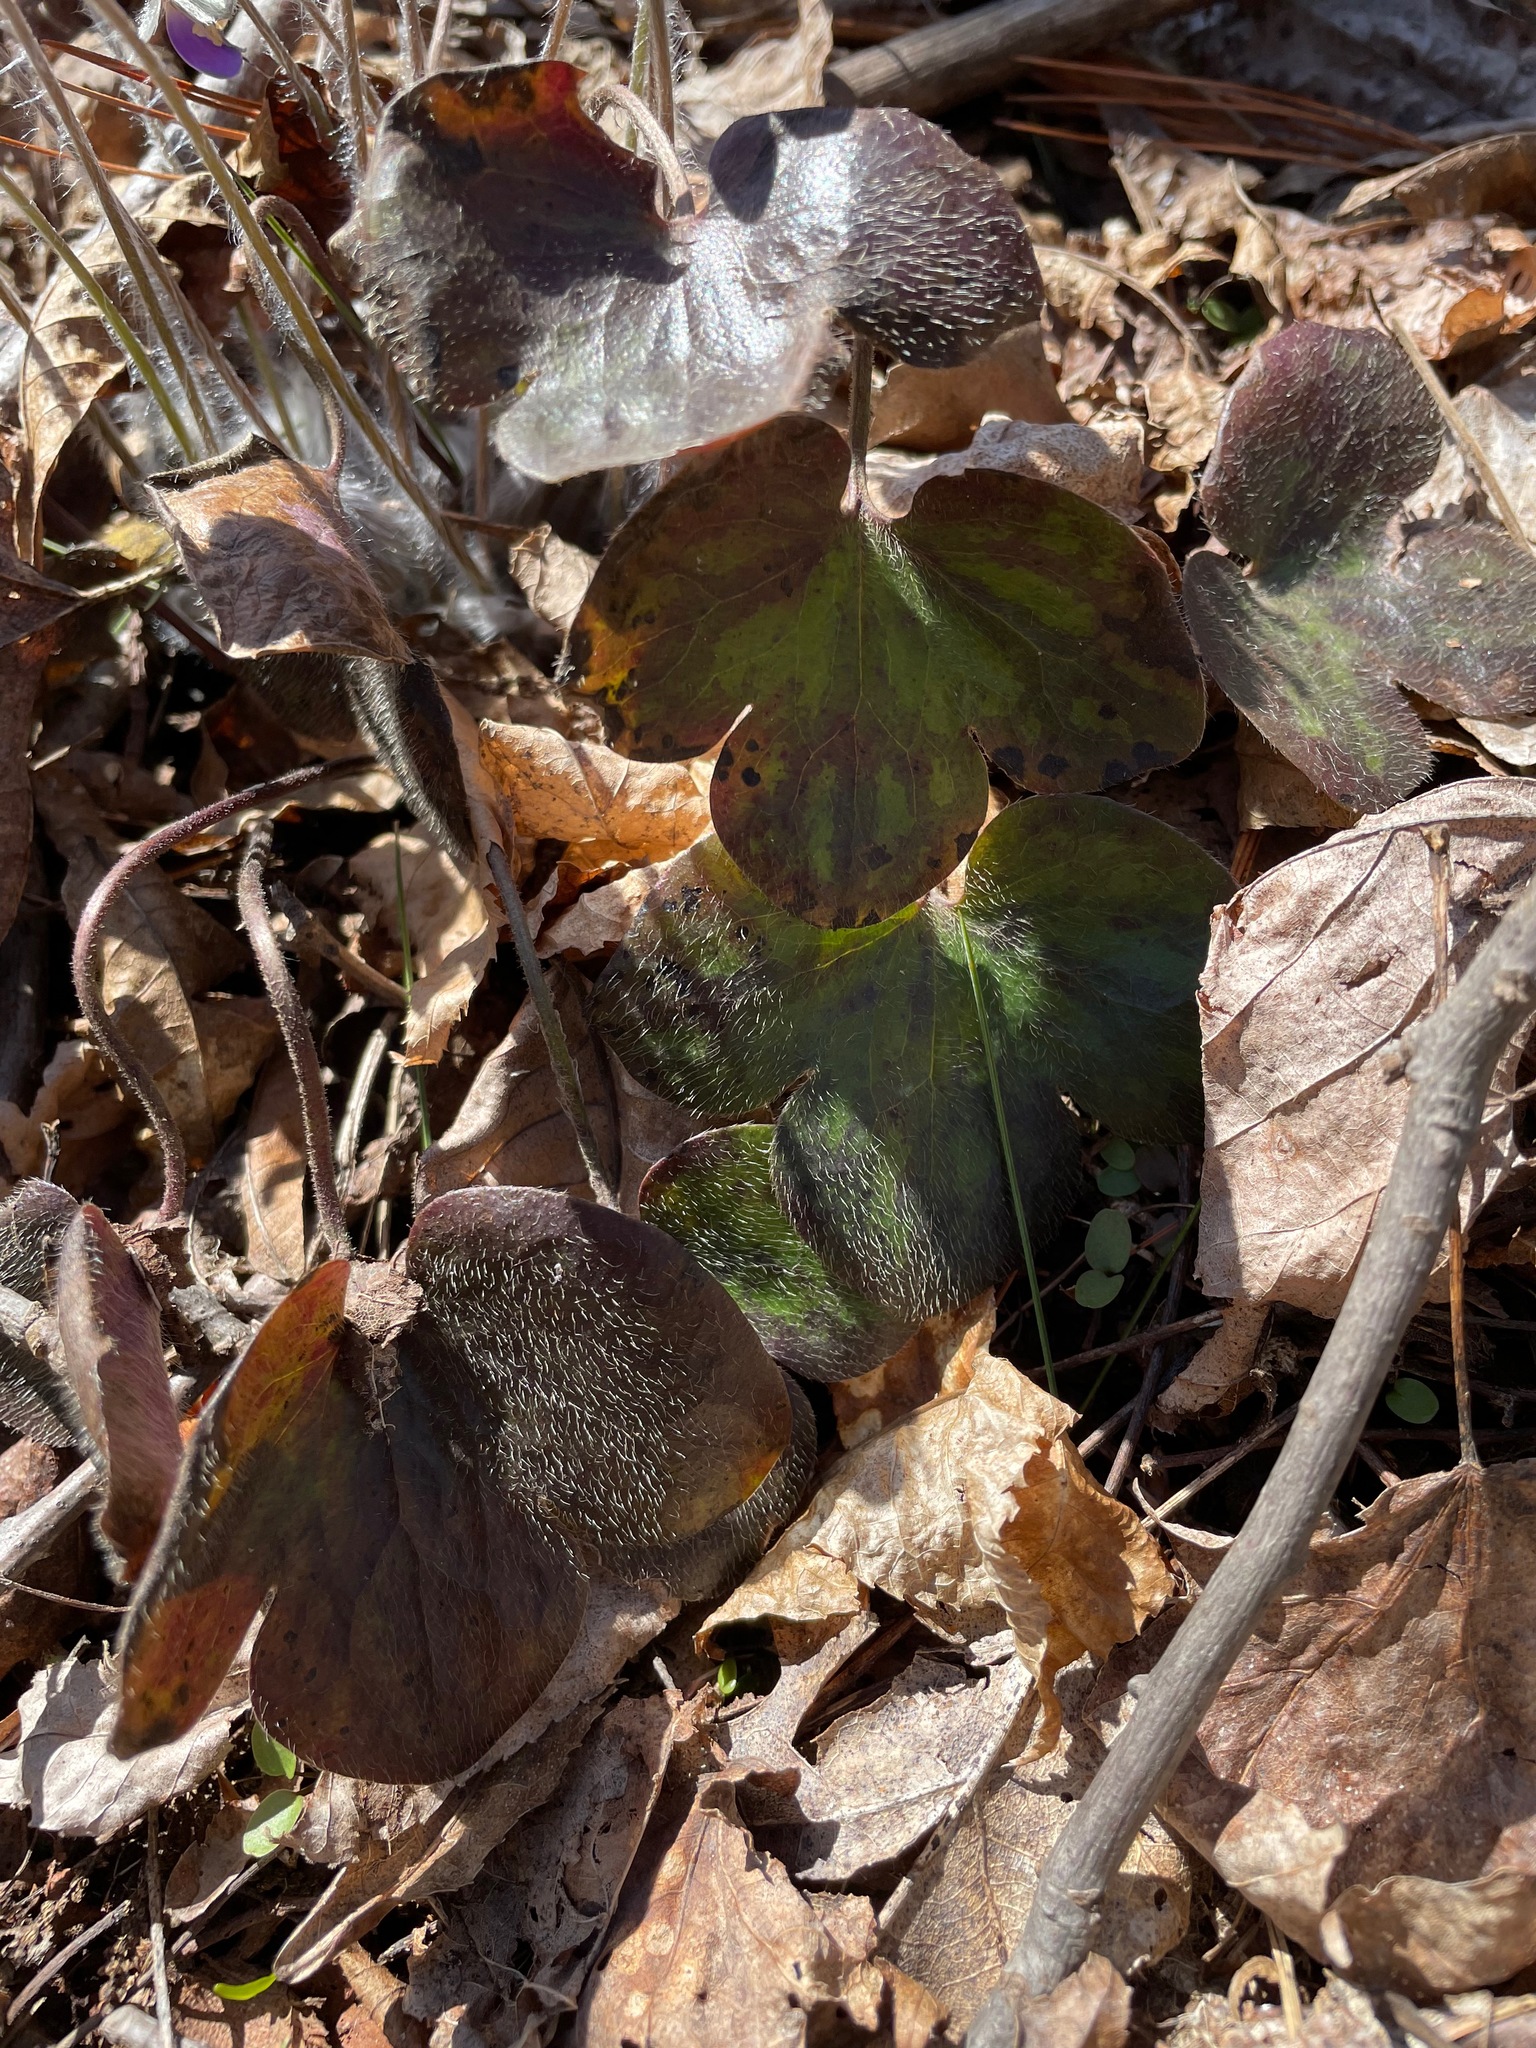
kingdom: Plantae
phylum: Tracheophyta
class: Magnoliopsida
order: Ranunculales
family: Ranunculaceae
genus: Hepatica
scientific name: Hepatica americana
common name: American hepatica
